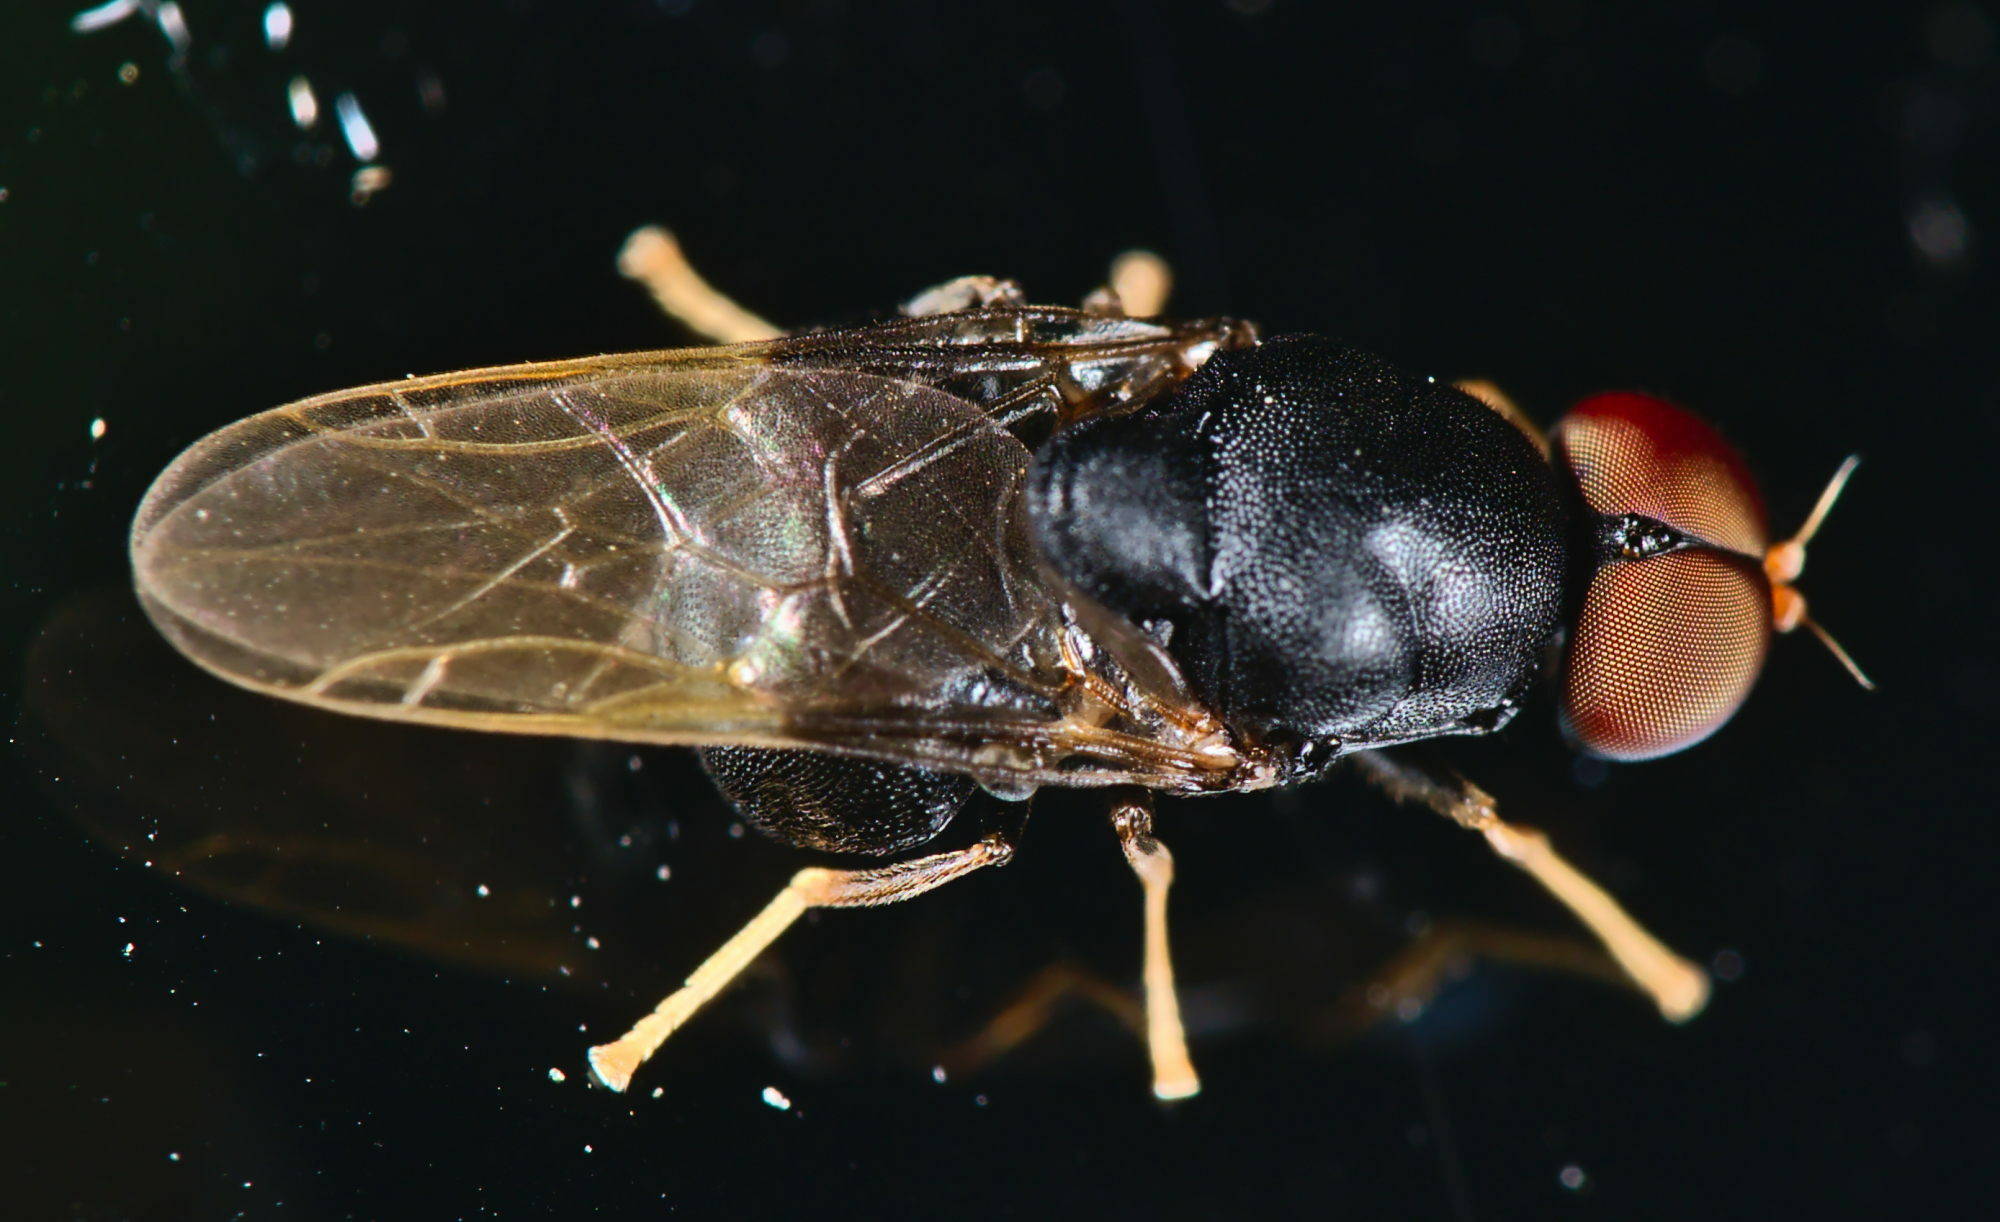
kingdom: Animalia
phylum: Arthropoda
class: Insecta
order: Diptera
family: Stratiomyidae
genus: Eupachygaster
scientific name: Eupachygaster tarsalis
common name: Scarce black
